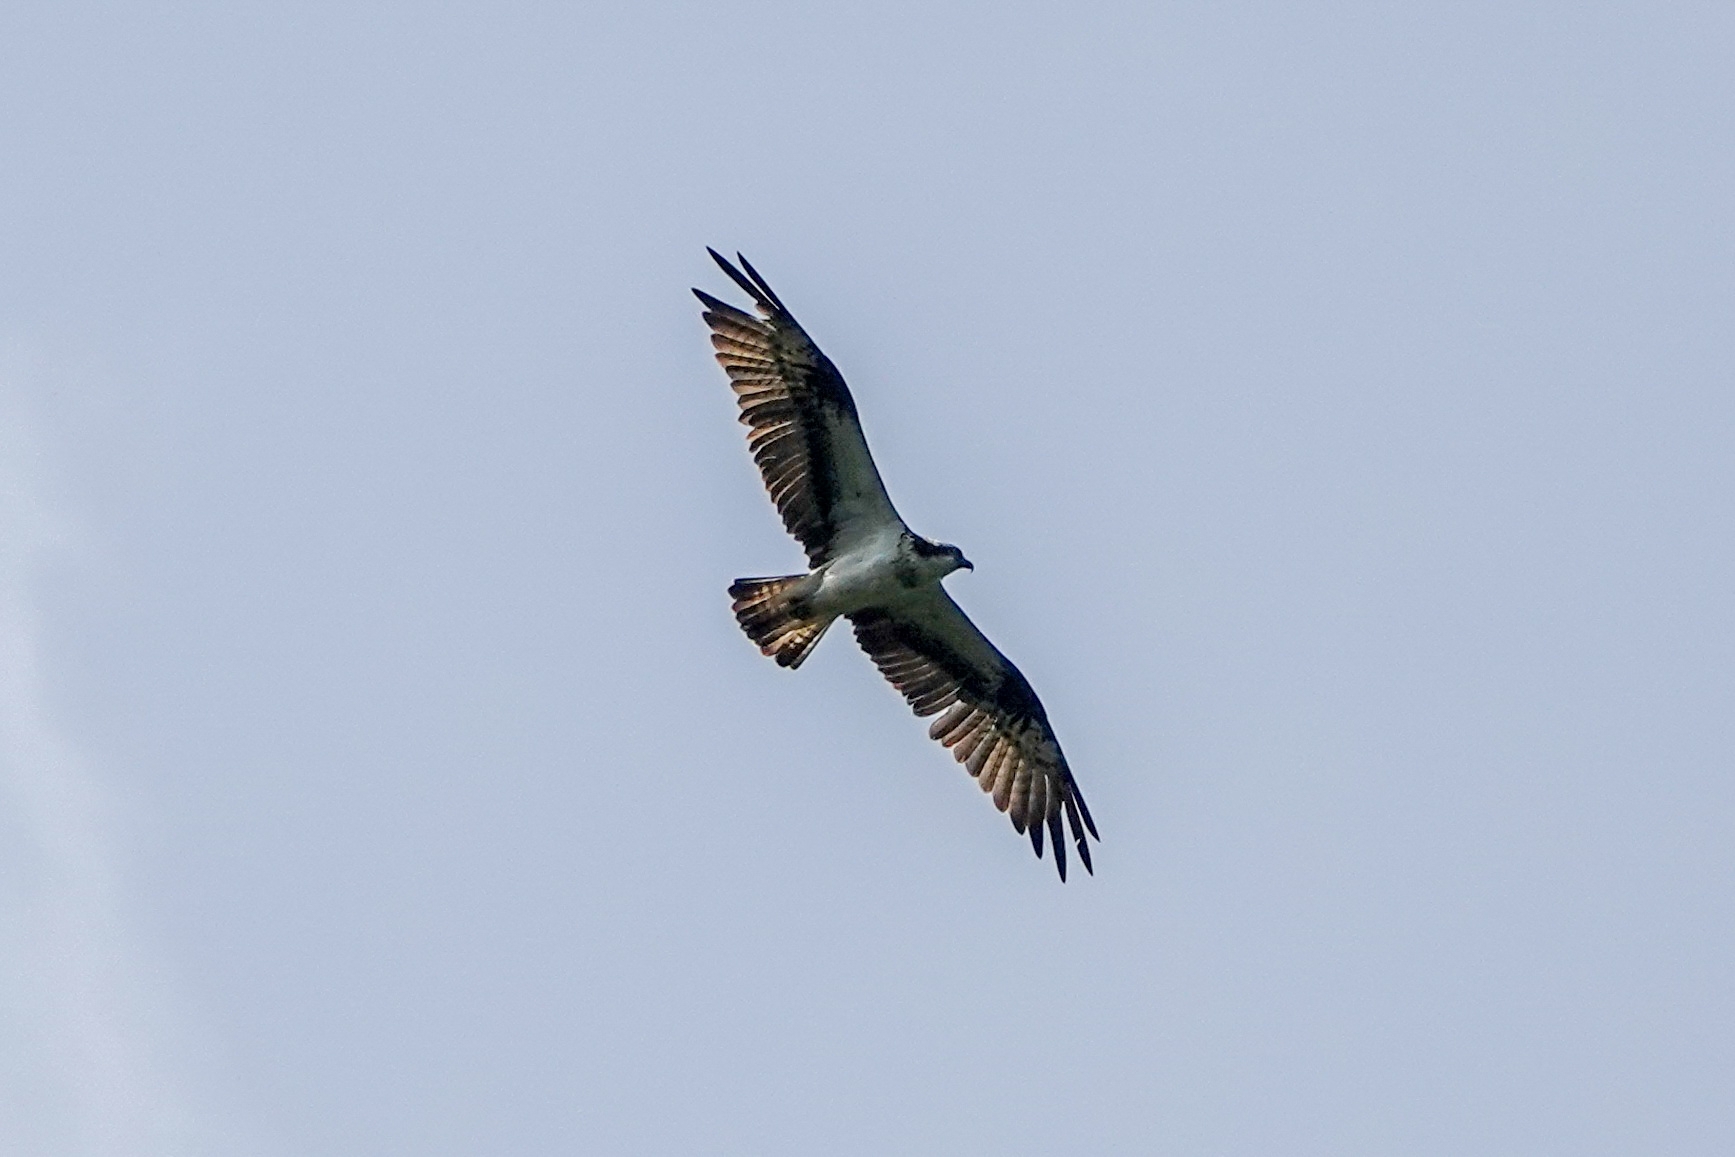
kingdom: Animalia
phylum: Chordata
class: Aves
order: Accipitriformes
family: Pandionidae
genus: Pandion
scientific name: Pandion haliaetus
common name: Osprey
